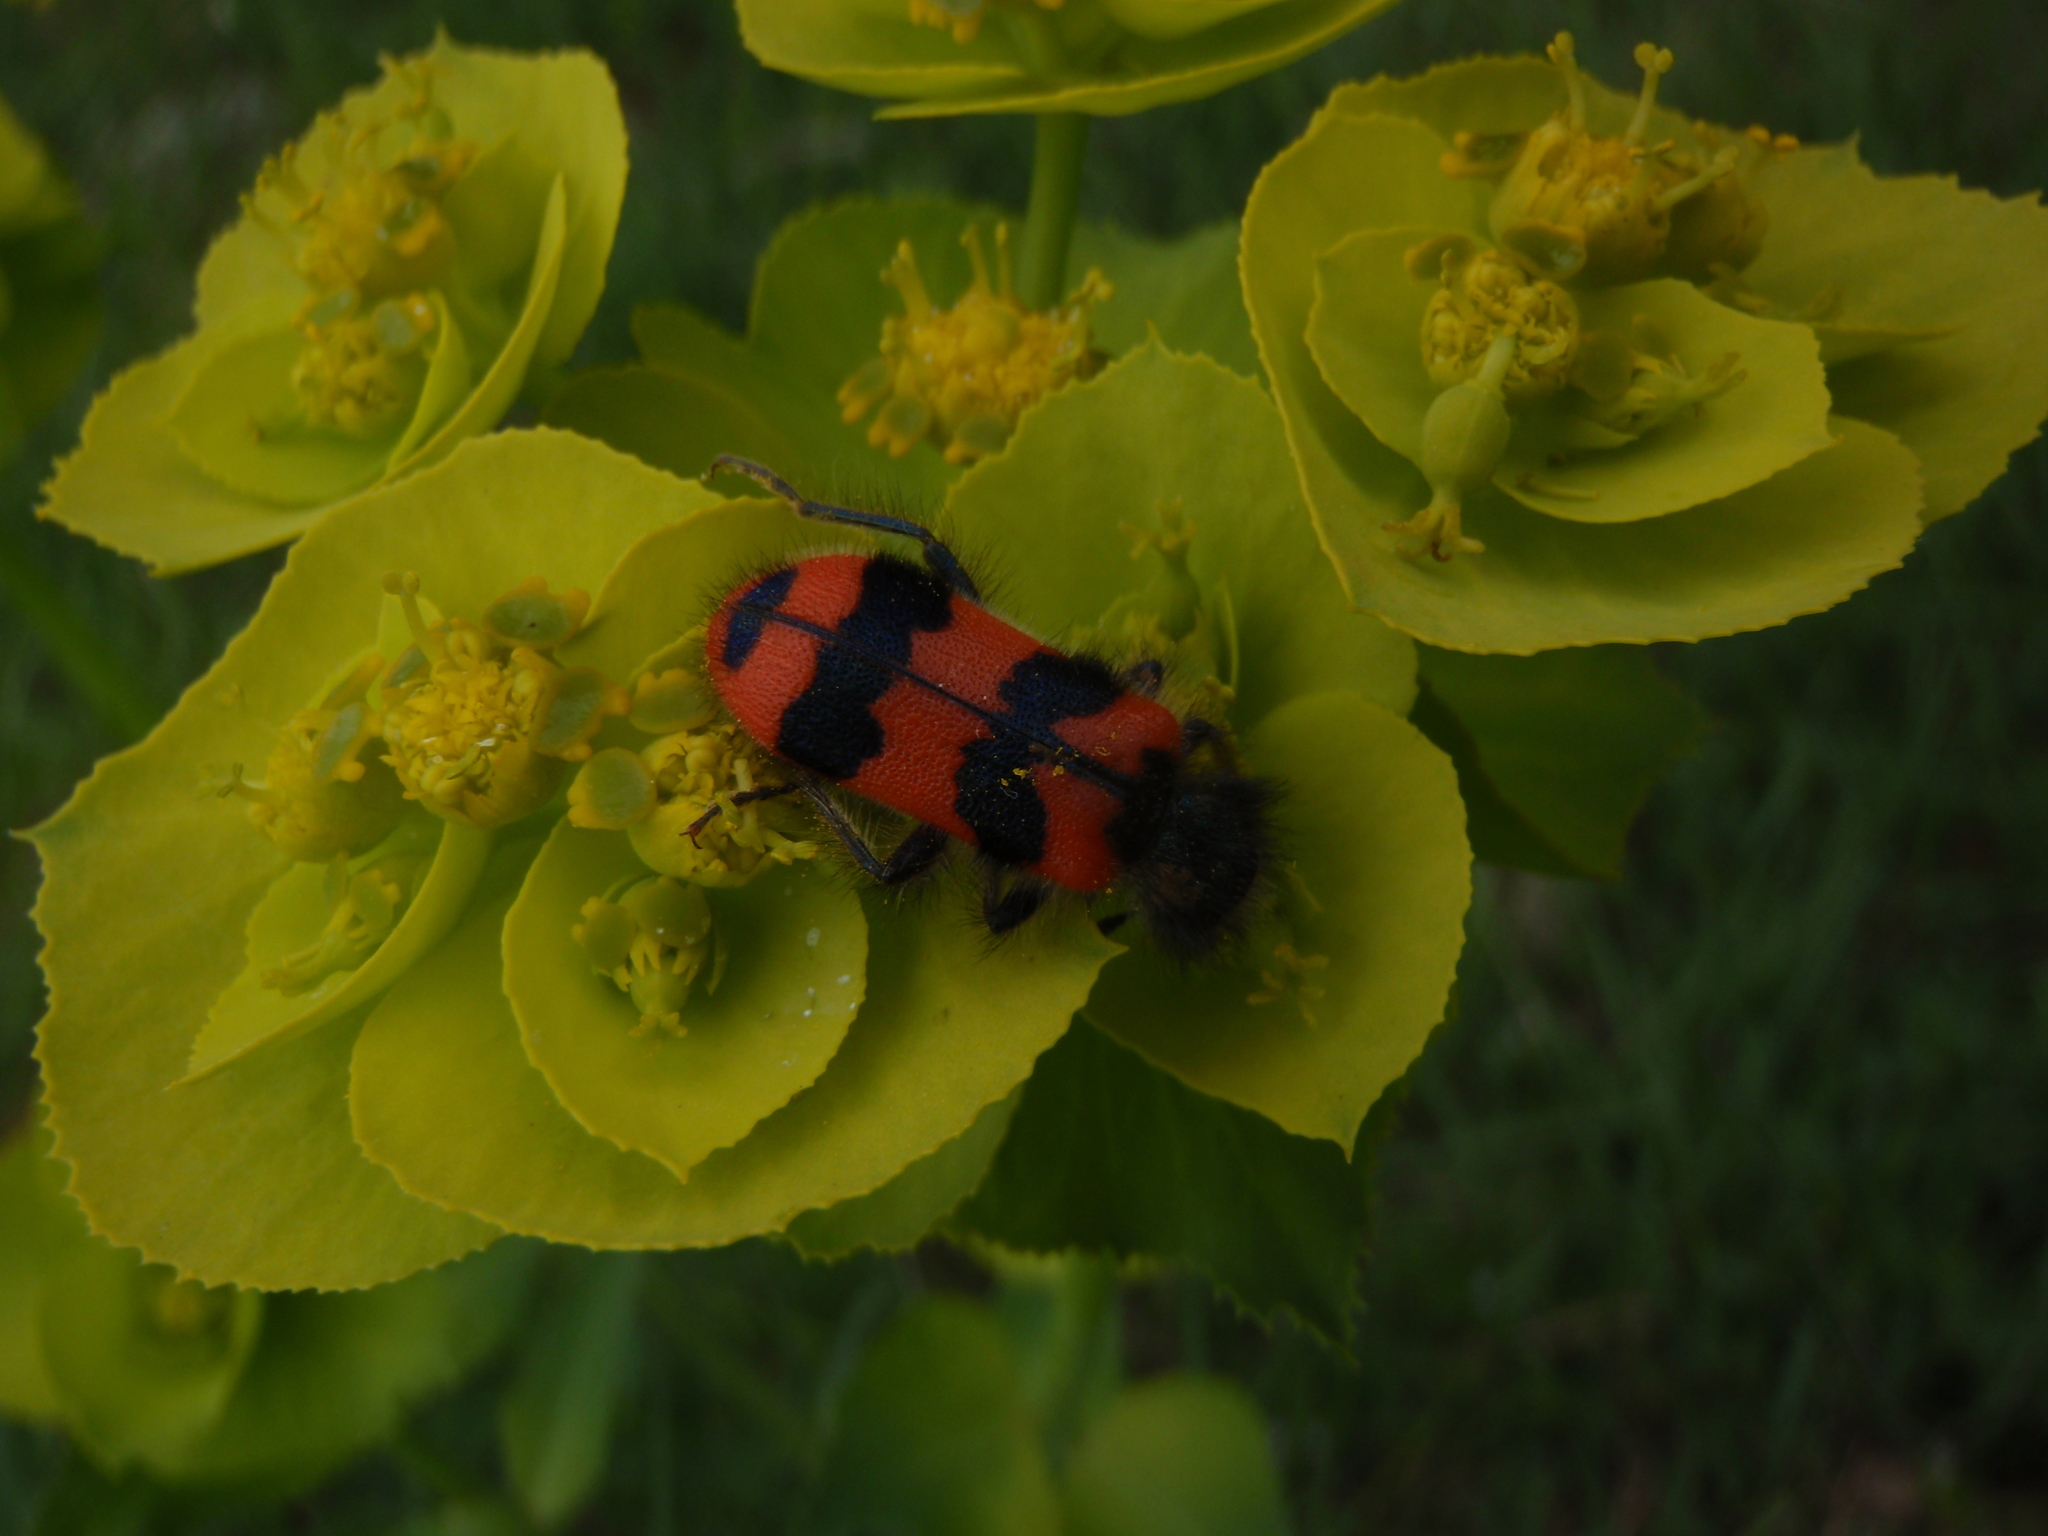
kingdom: Animalia
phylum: Arthropoda
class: Insecta
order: Coleoptera
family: Cleridae
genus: Trichodes
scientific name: Trichodes alvearius
